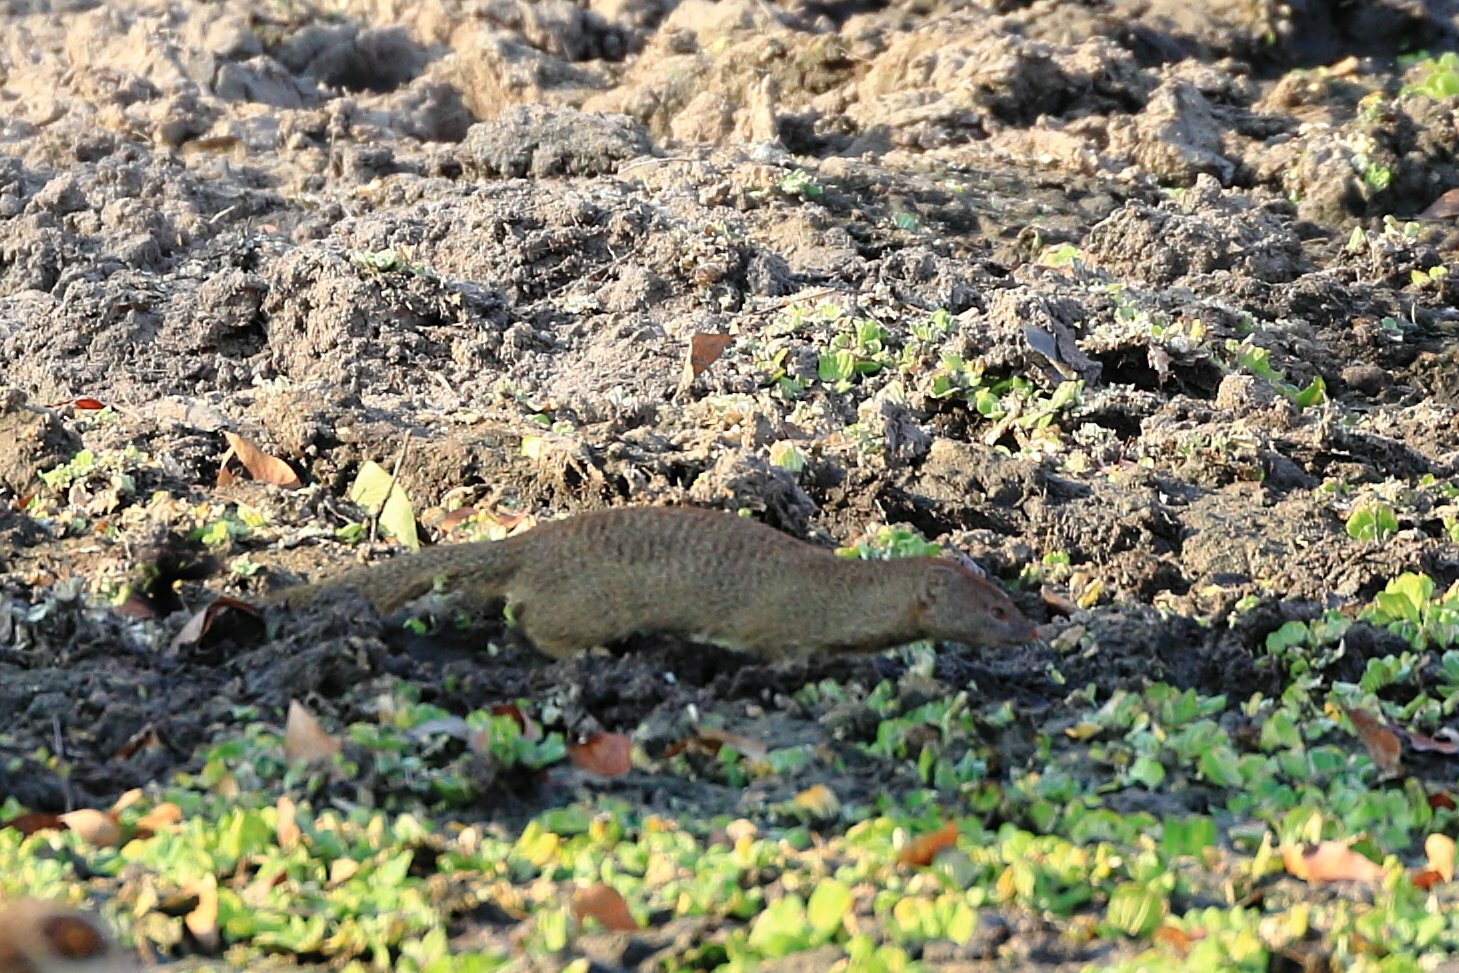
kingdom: Animalia
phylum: Chordata
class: Mammalia
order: Carnivora
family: Herpestidae
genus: Galerella
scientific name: Galerella sanguinea
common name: Slender mongoose
